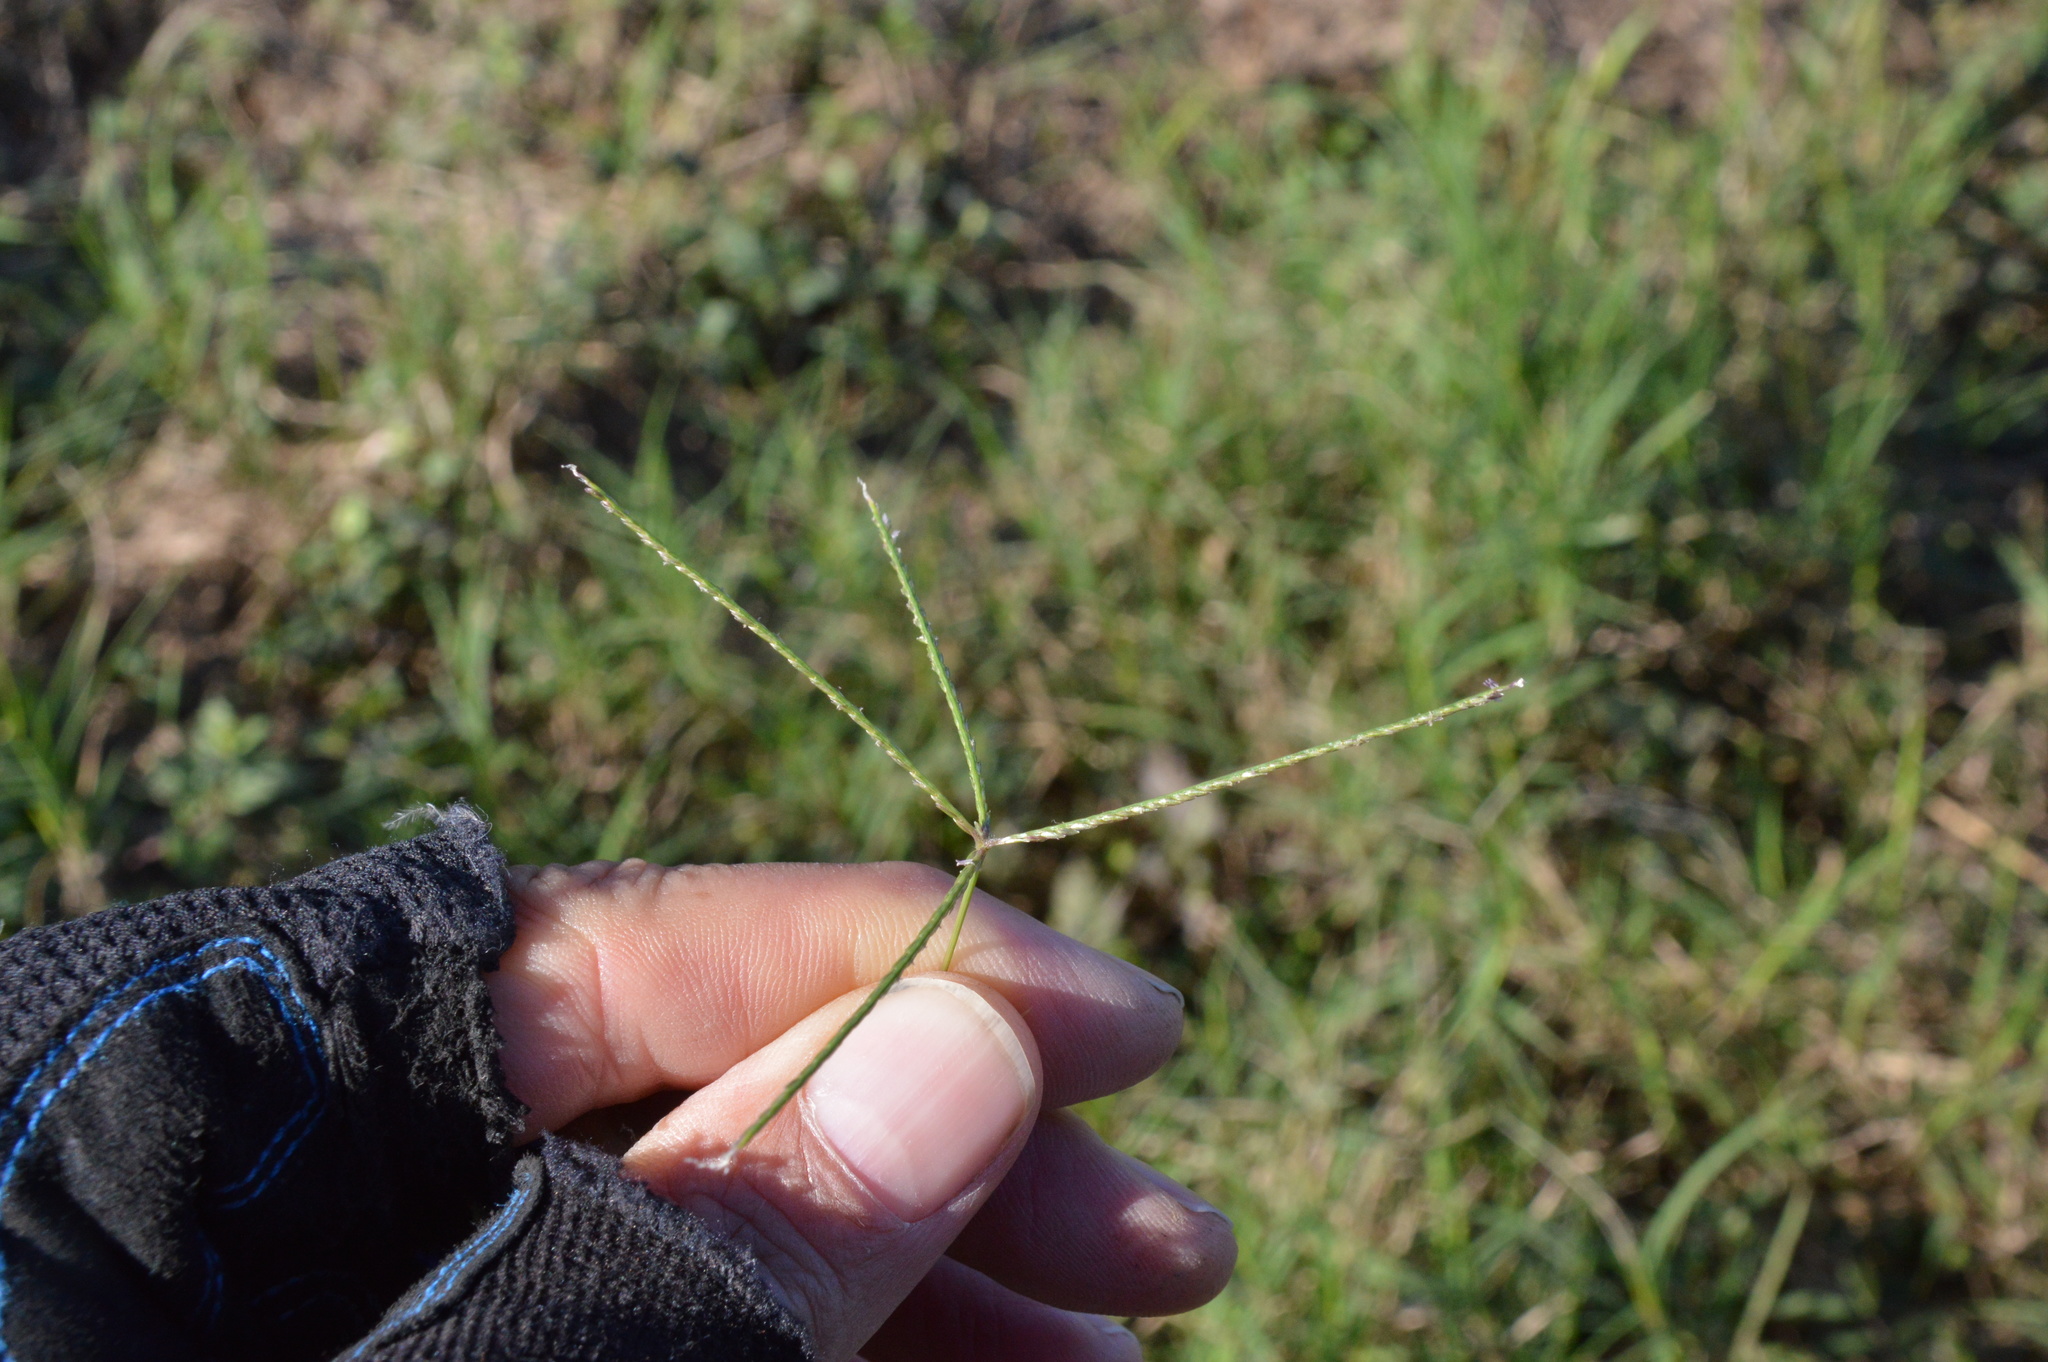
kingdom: Plantae
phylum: Tracheophyta
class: Liliopsida
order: Poales
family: Poaceae
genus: Cynodon
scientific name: Cynodon dactylon
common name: Bermuda grass
